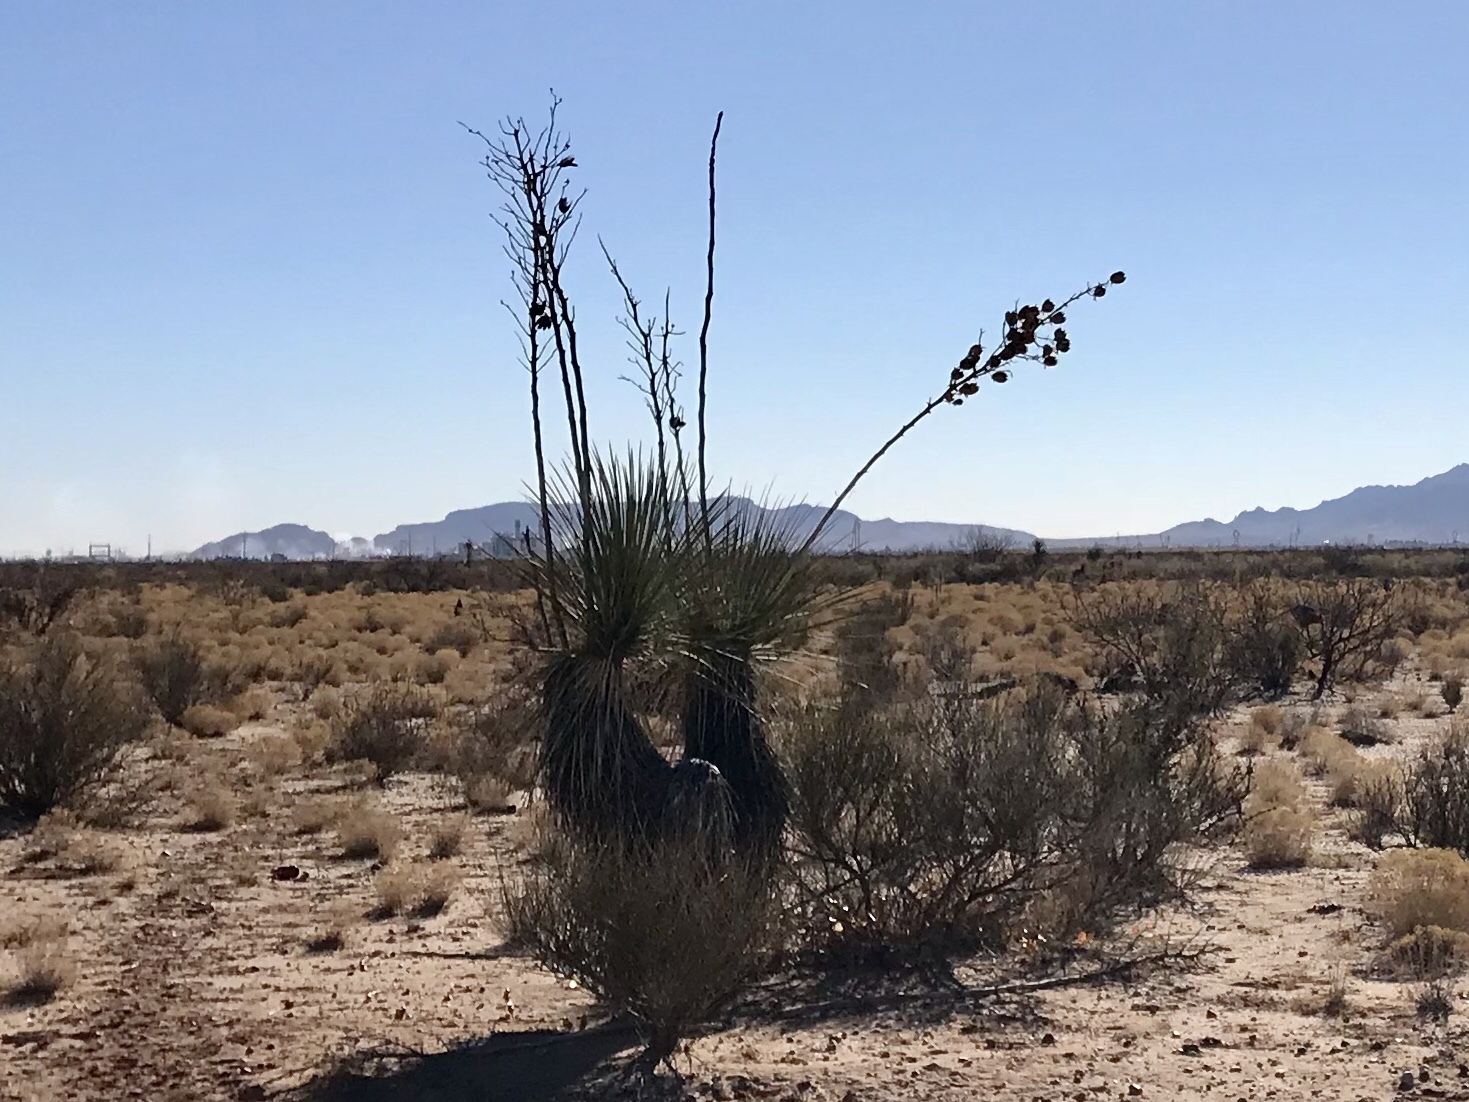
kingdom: Plantae
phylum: Tracheophyta
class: Liliopsida
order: Asparagales
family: Asparagaceae
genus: Yucca
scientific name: Yucca elata
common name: Palmella
